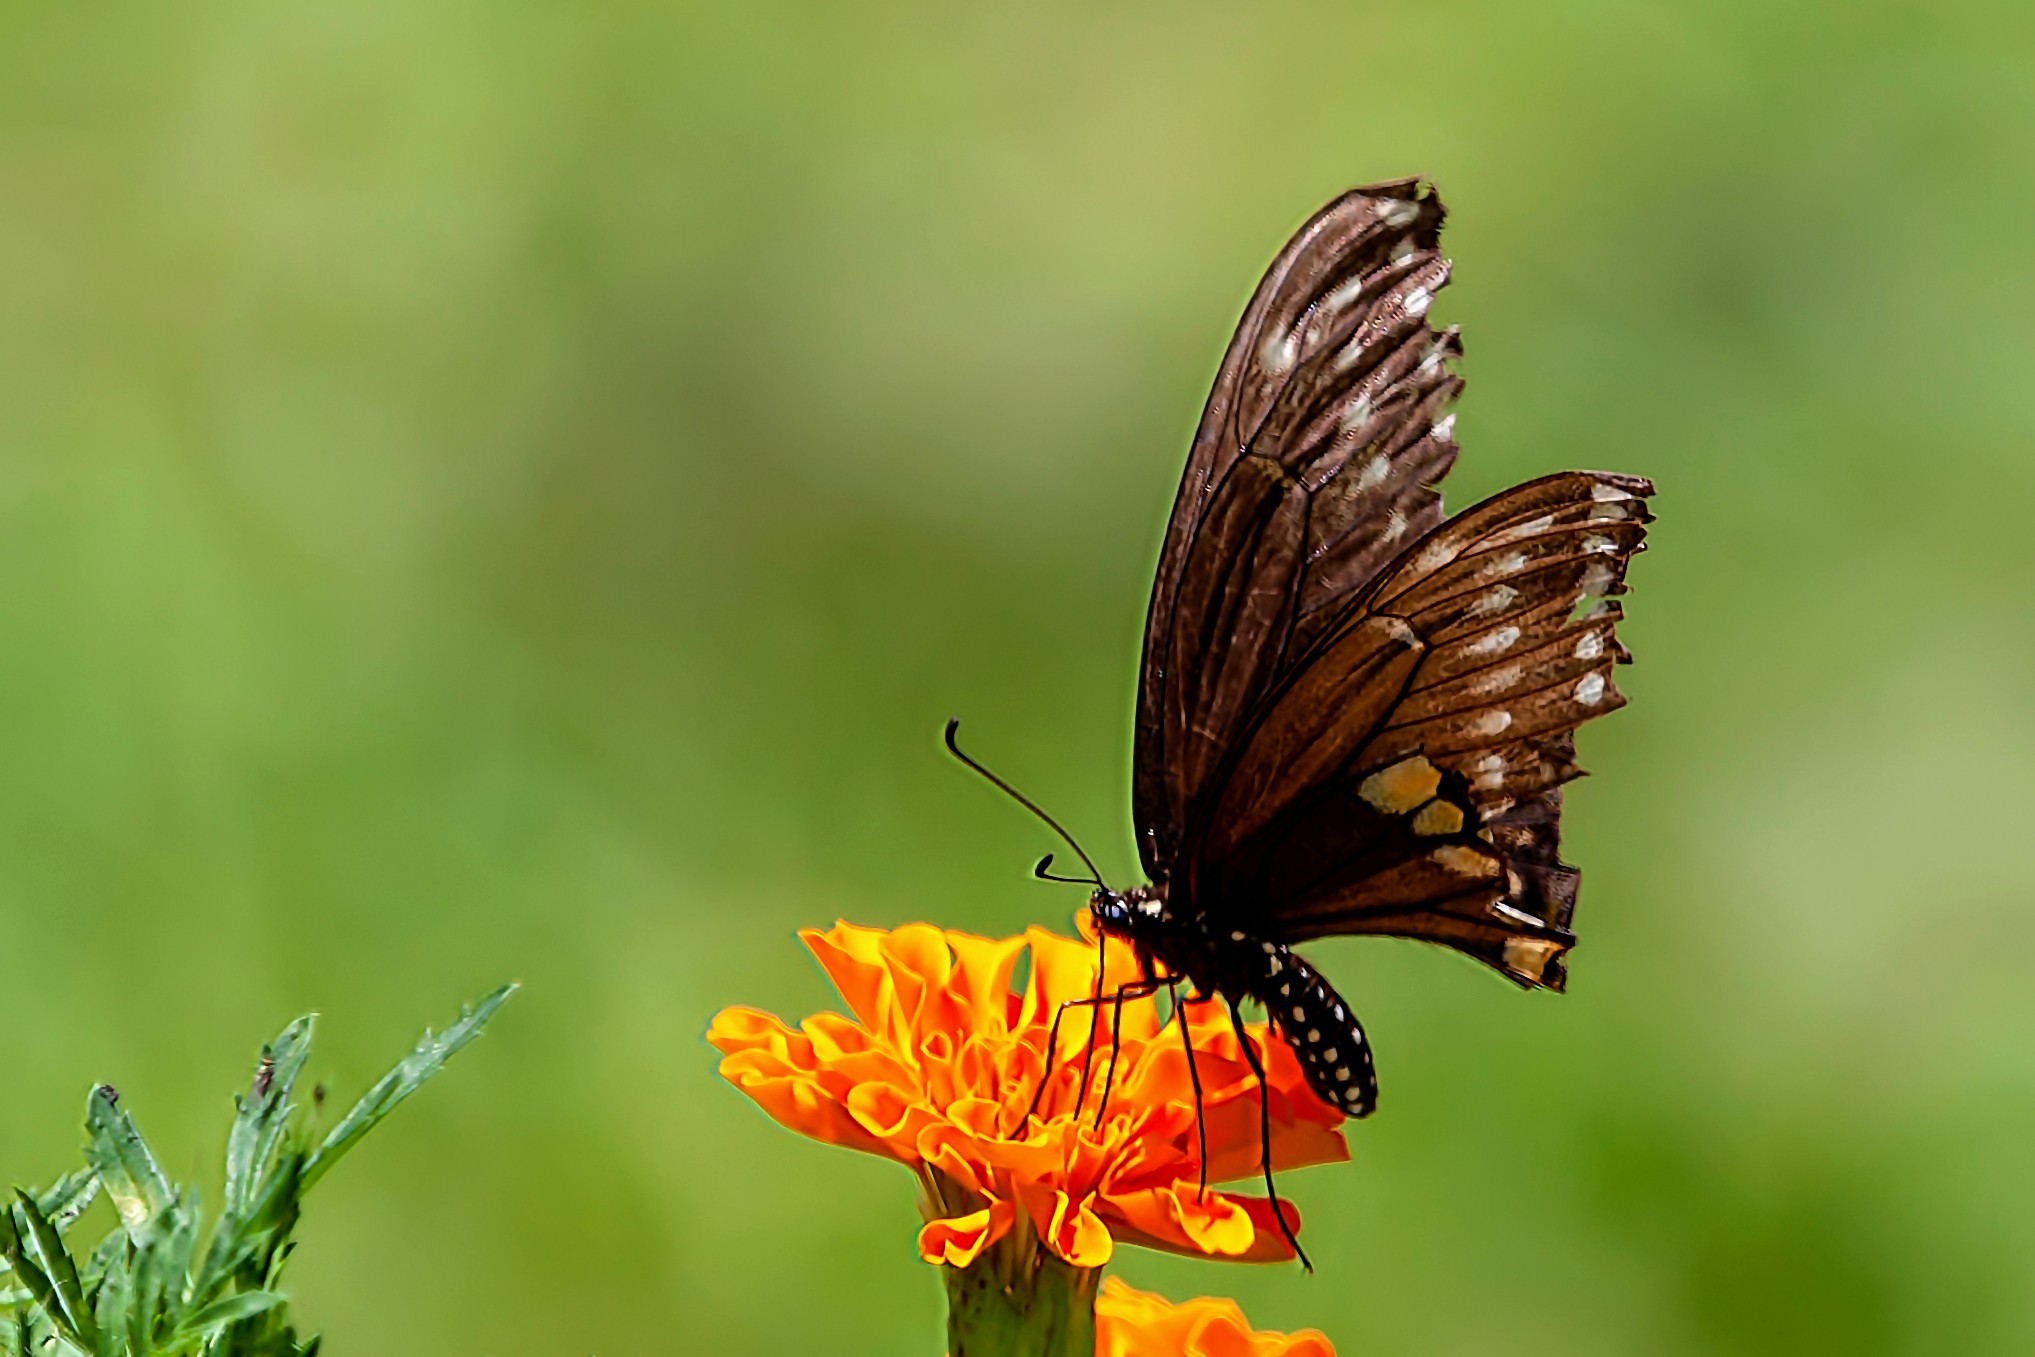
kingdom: Animalia
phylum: Arthropoda
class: Insecta
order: Lepidoptera
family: Papilionidae
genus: Papilio
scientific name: Papilio polyxenes
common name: Black swallowtail
